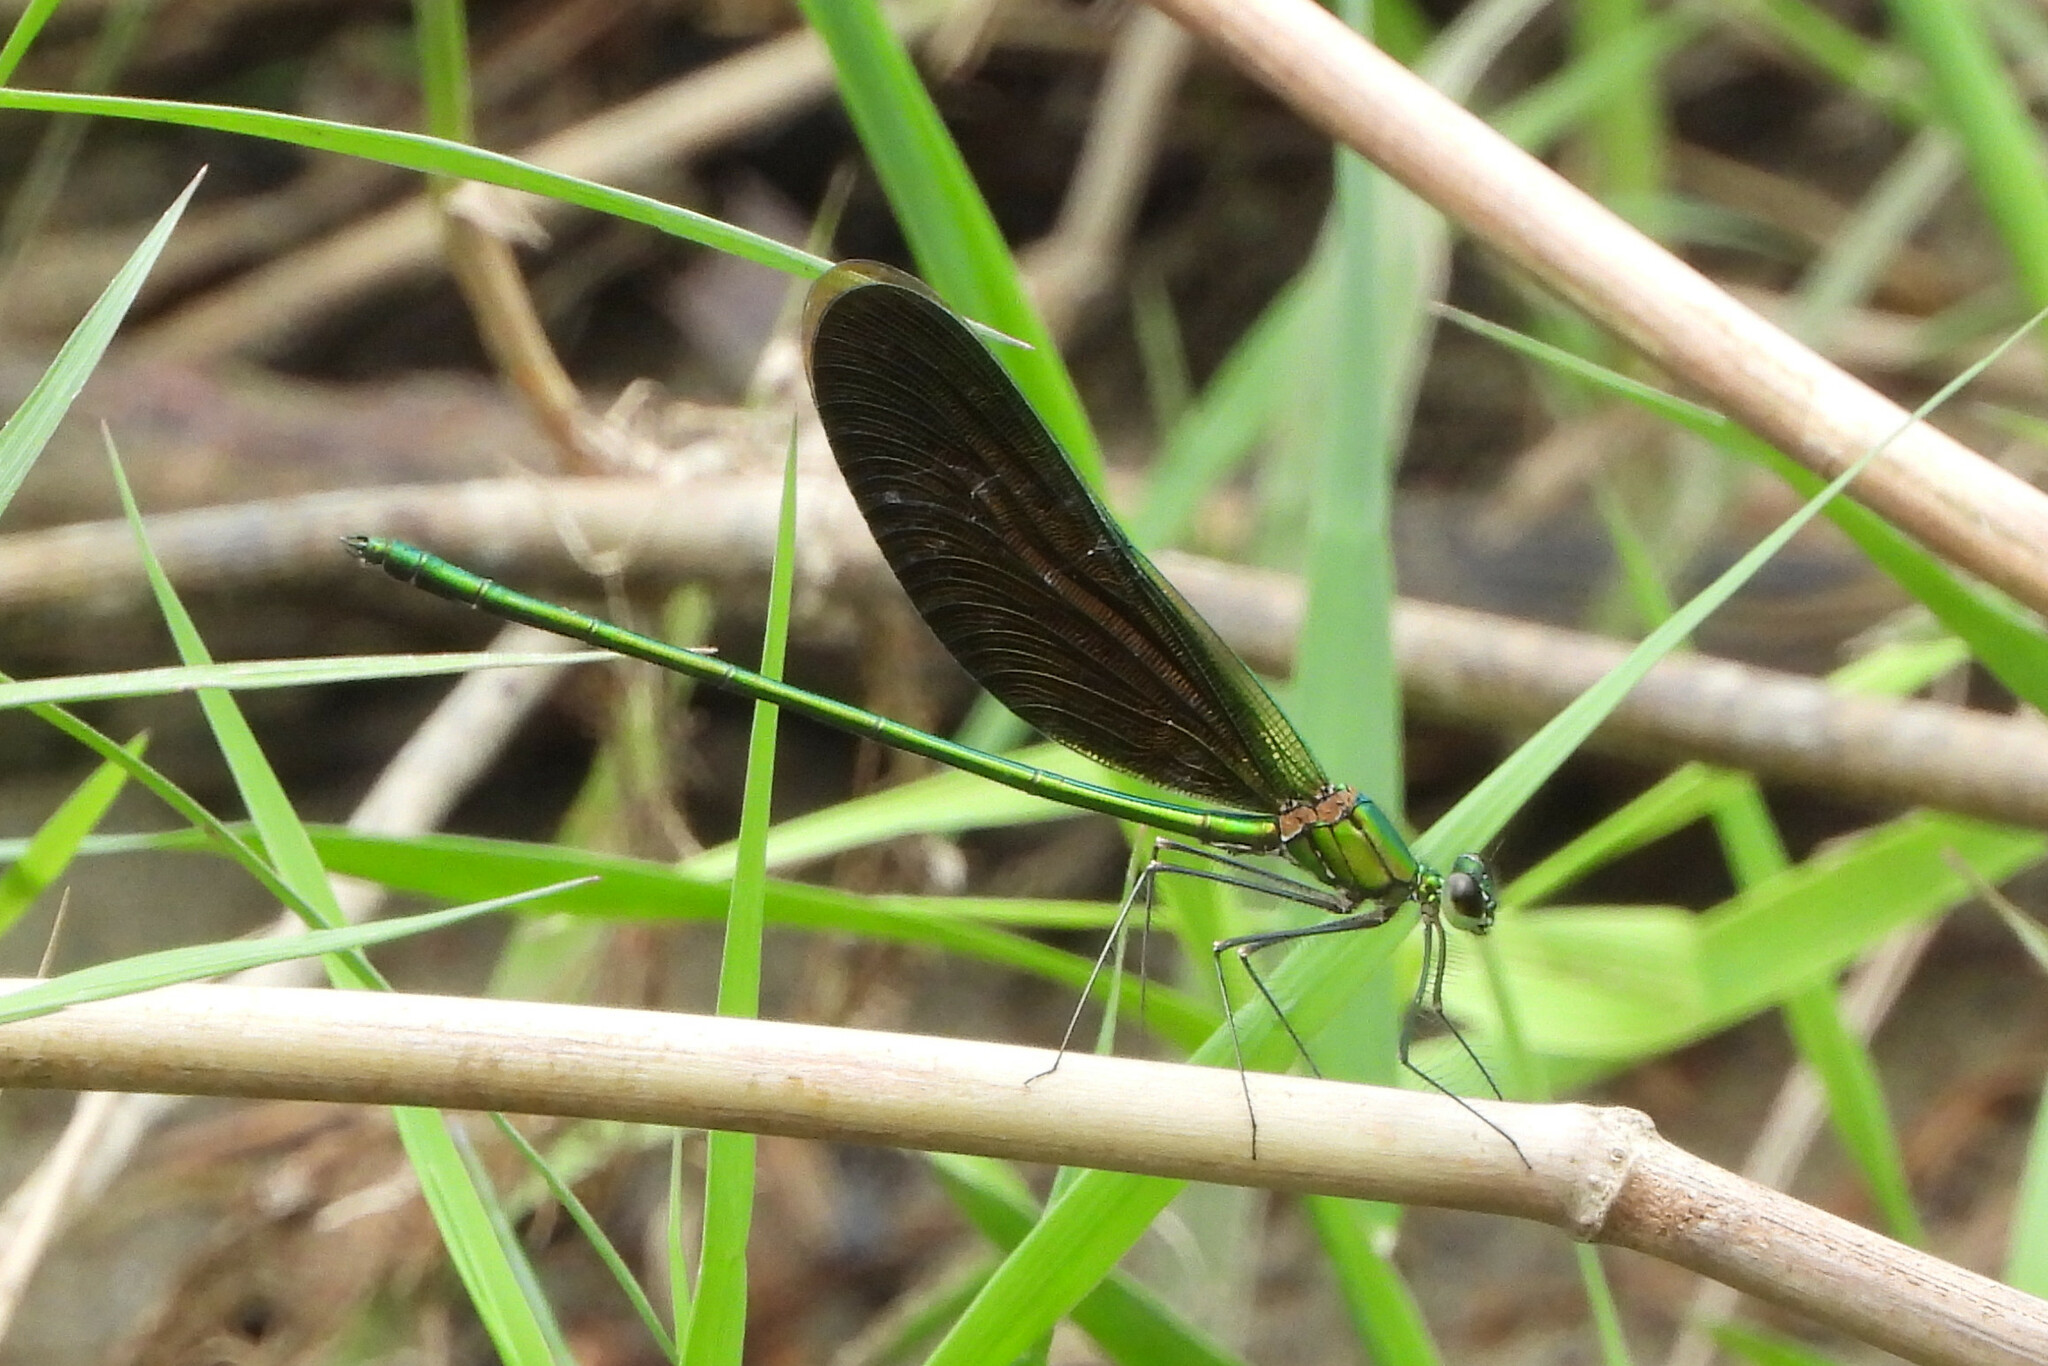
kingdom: Animalia
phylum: Arthropoda
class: Insecta
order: Odonata
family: Calopterygidae
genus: Neurobasis
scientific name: Neurobasis chinensis
